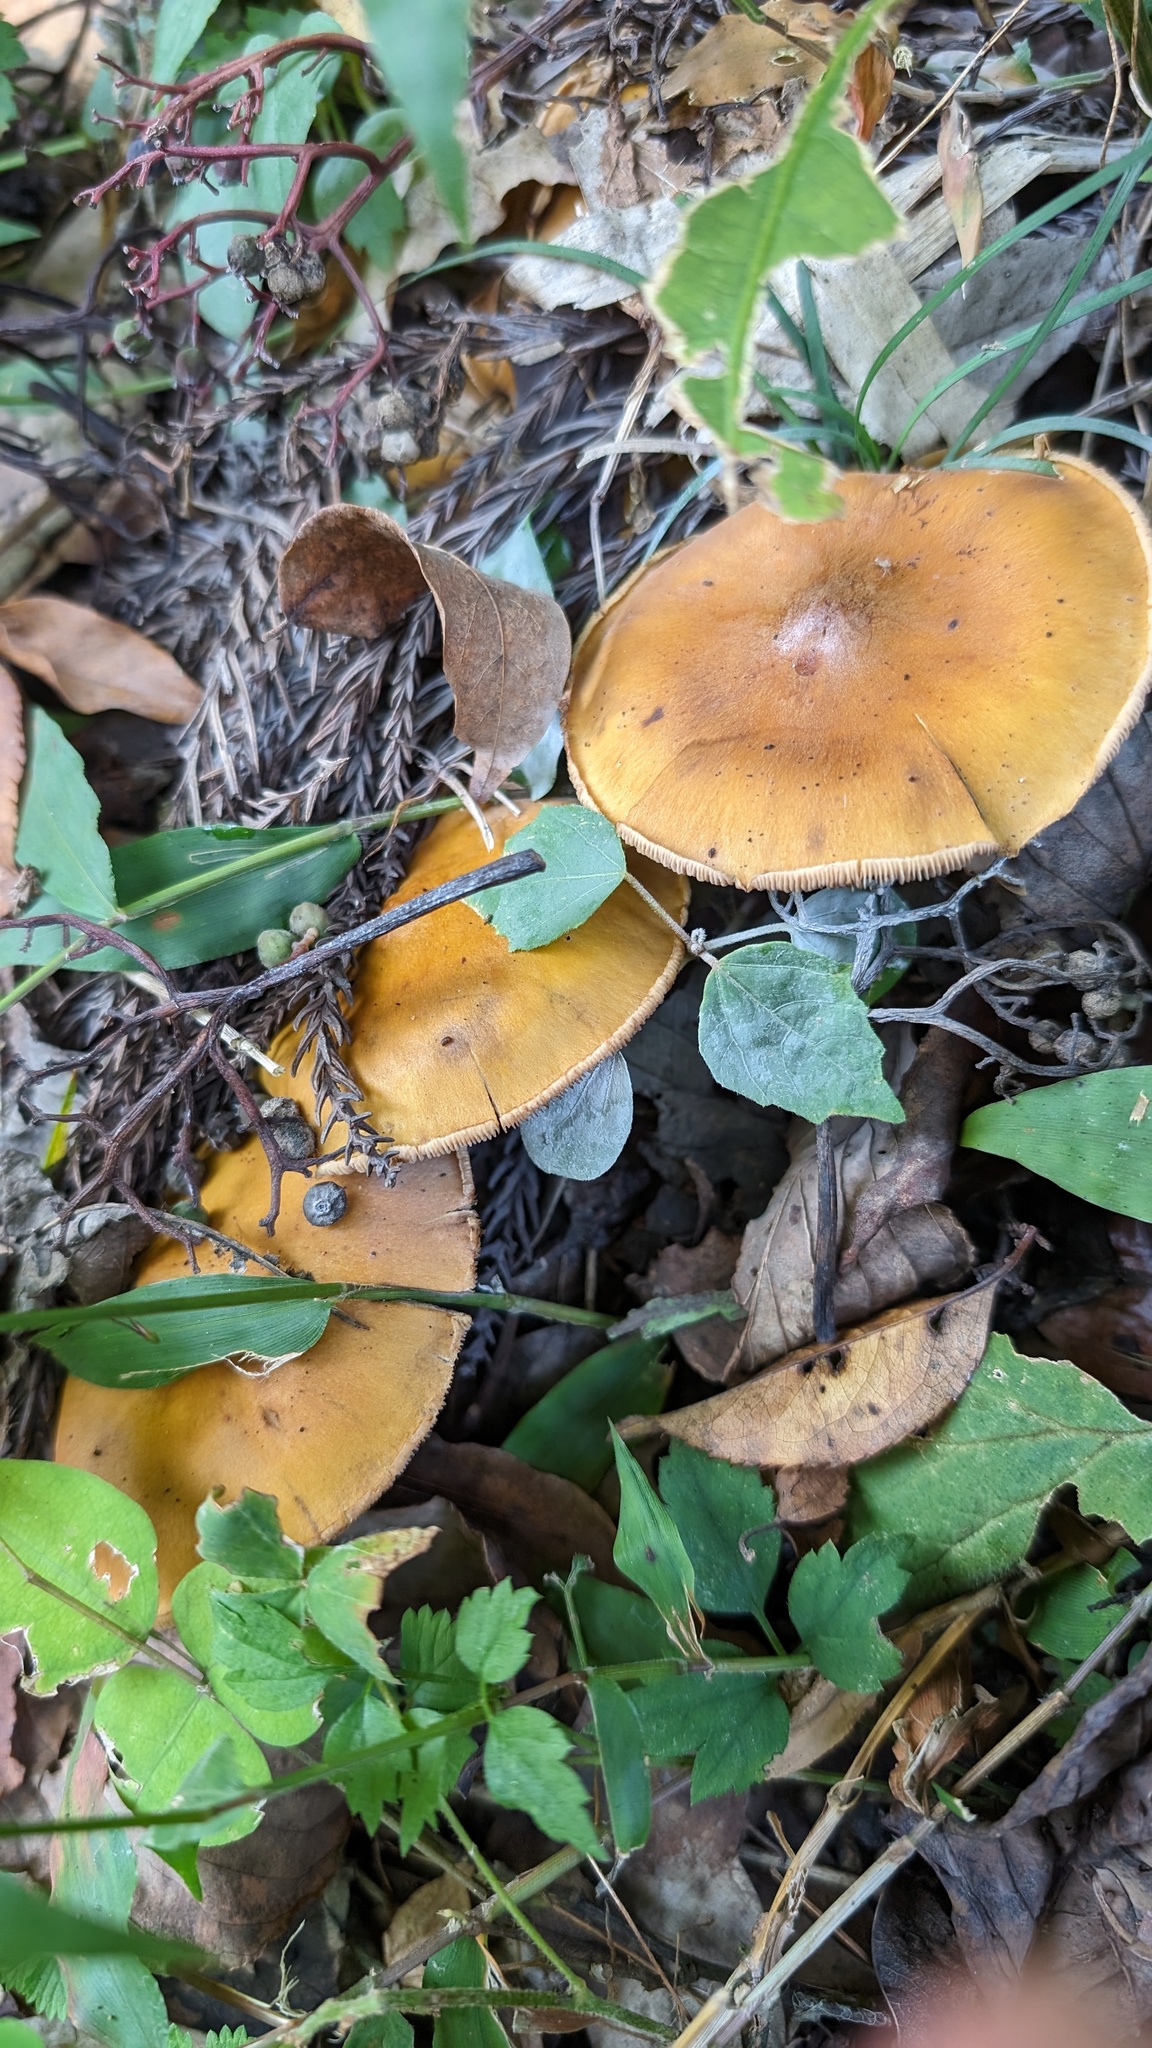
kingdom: Fungi
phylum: Basidiomycota
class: Agaricomycetes
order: Agaricales
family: Tricholomataceae
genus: Tricholosporum
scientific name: Tricholosporum porphyrophyllum
